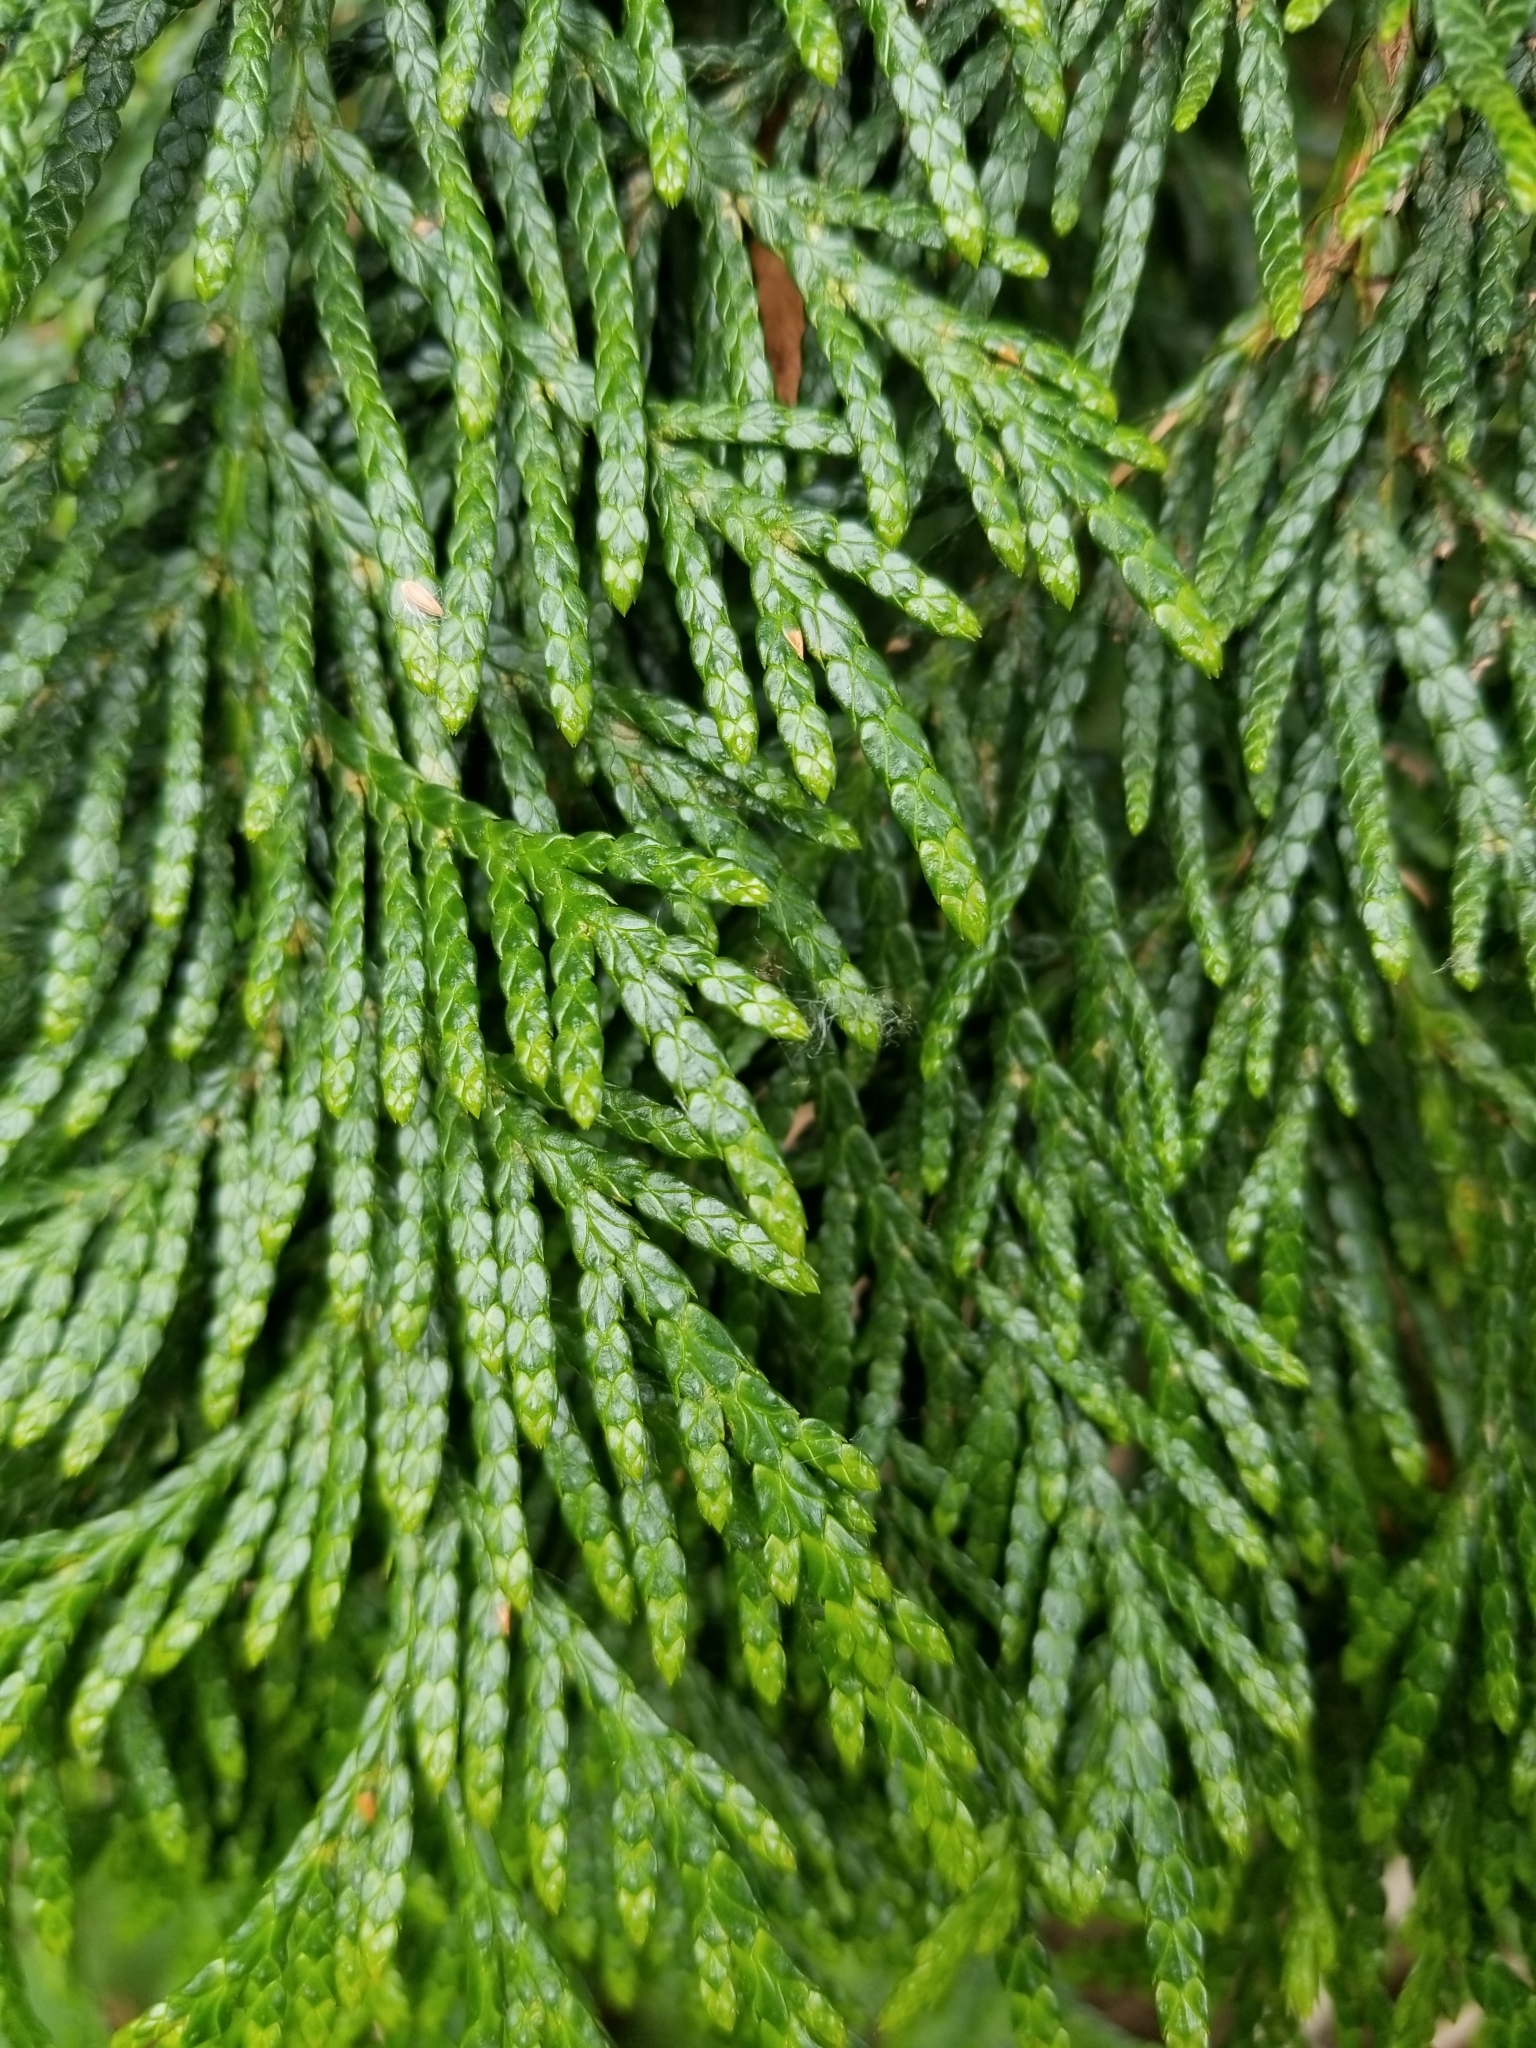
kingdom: Plantae
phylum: Tracheophyta
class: Pinopsida
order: Pinales
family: Cupressaceae
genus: Thuja
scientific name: Thuja plicata
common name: Western red-cedar
